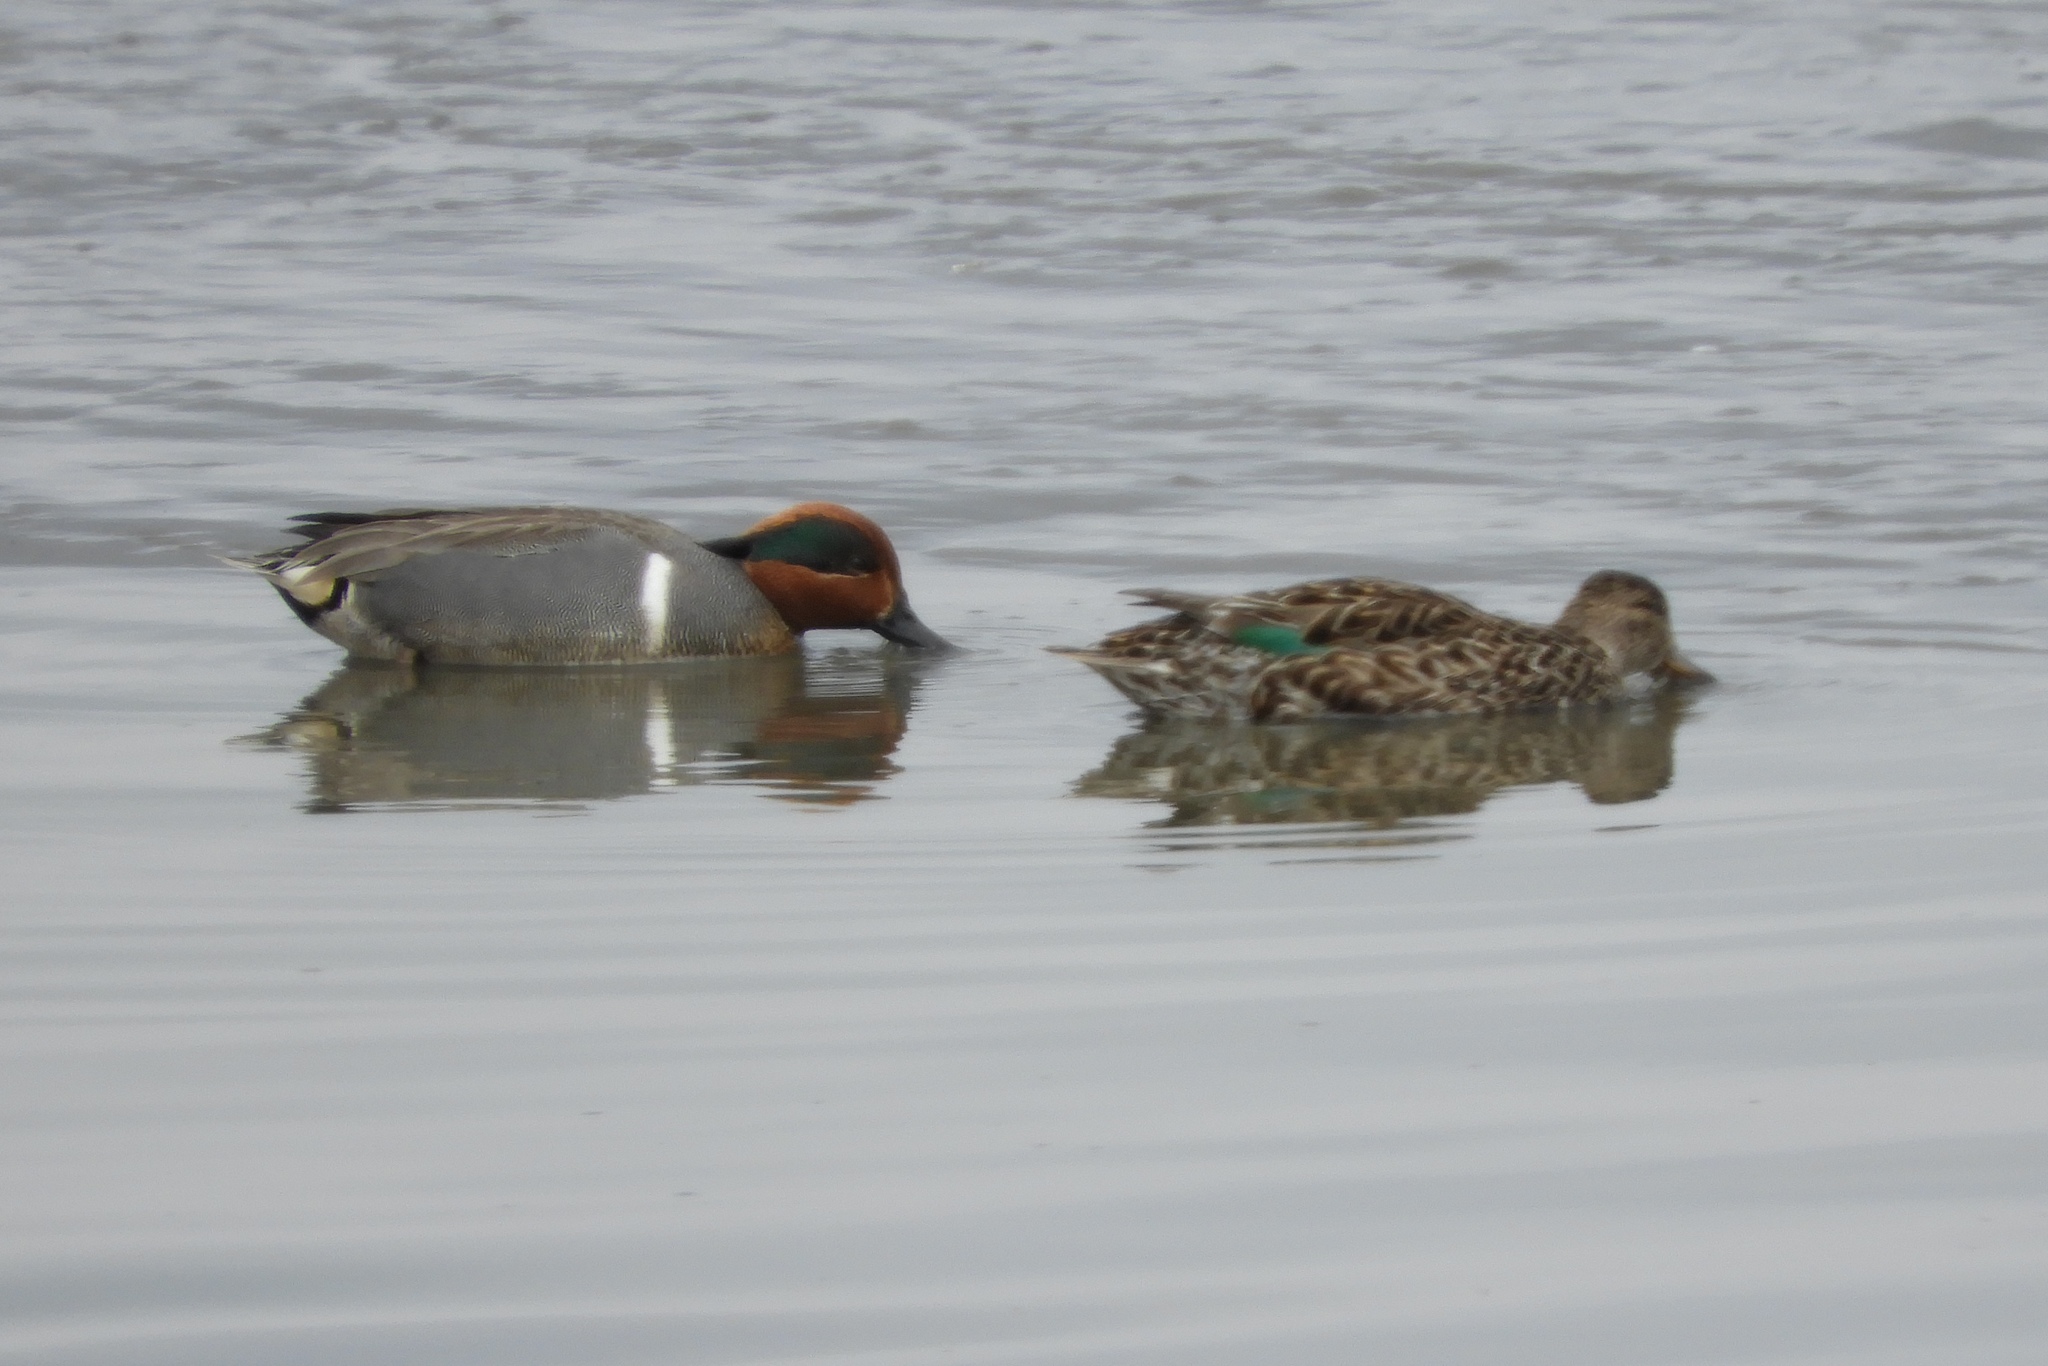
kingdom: Animalia
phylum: Chordata
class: Aves
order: Anseriformes
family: Anatidae
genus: Anas
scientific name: Anas crecca
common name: Eurasian teal
